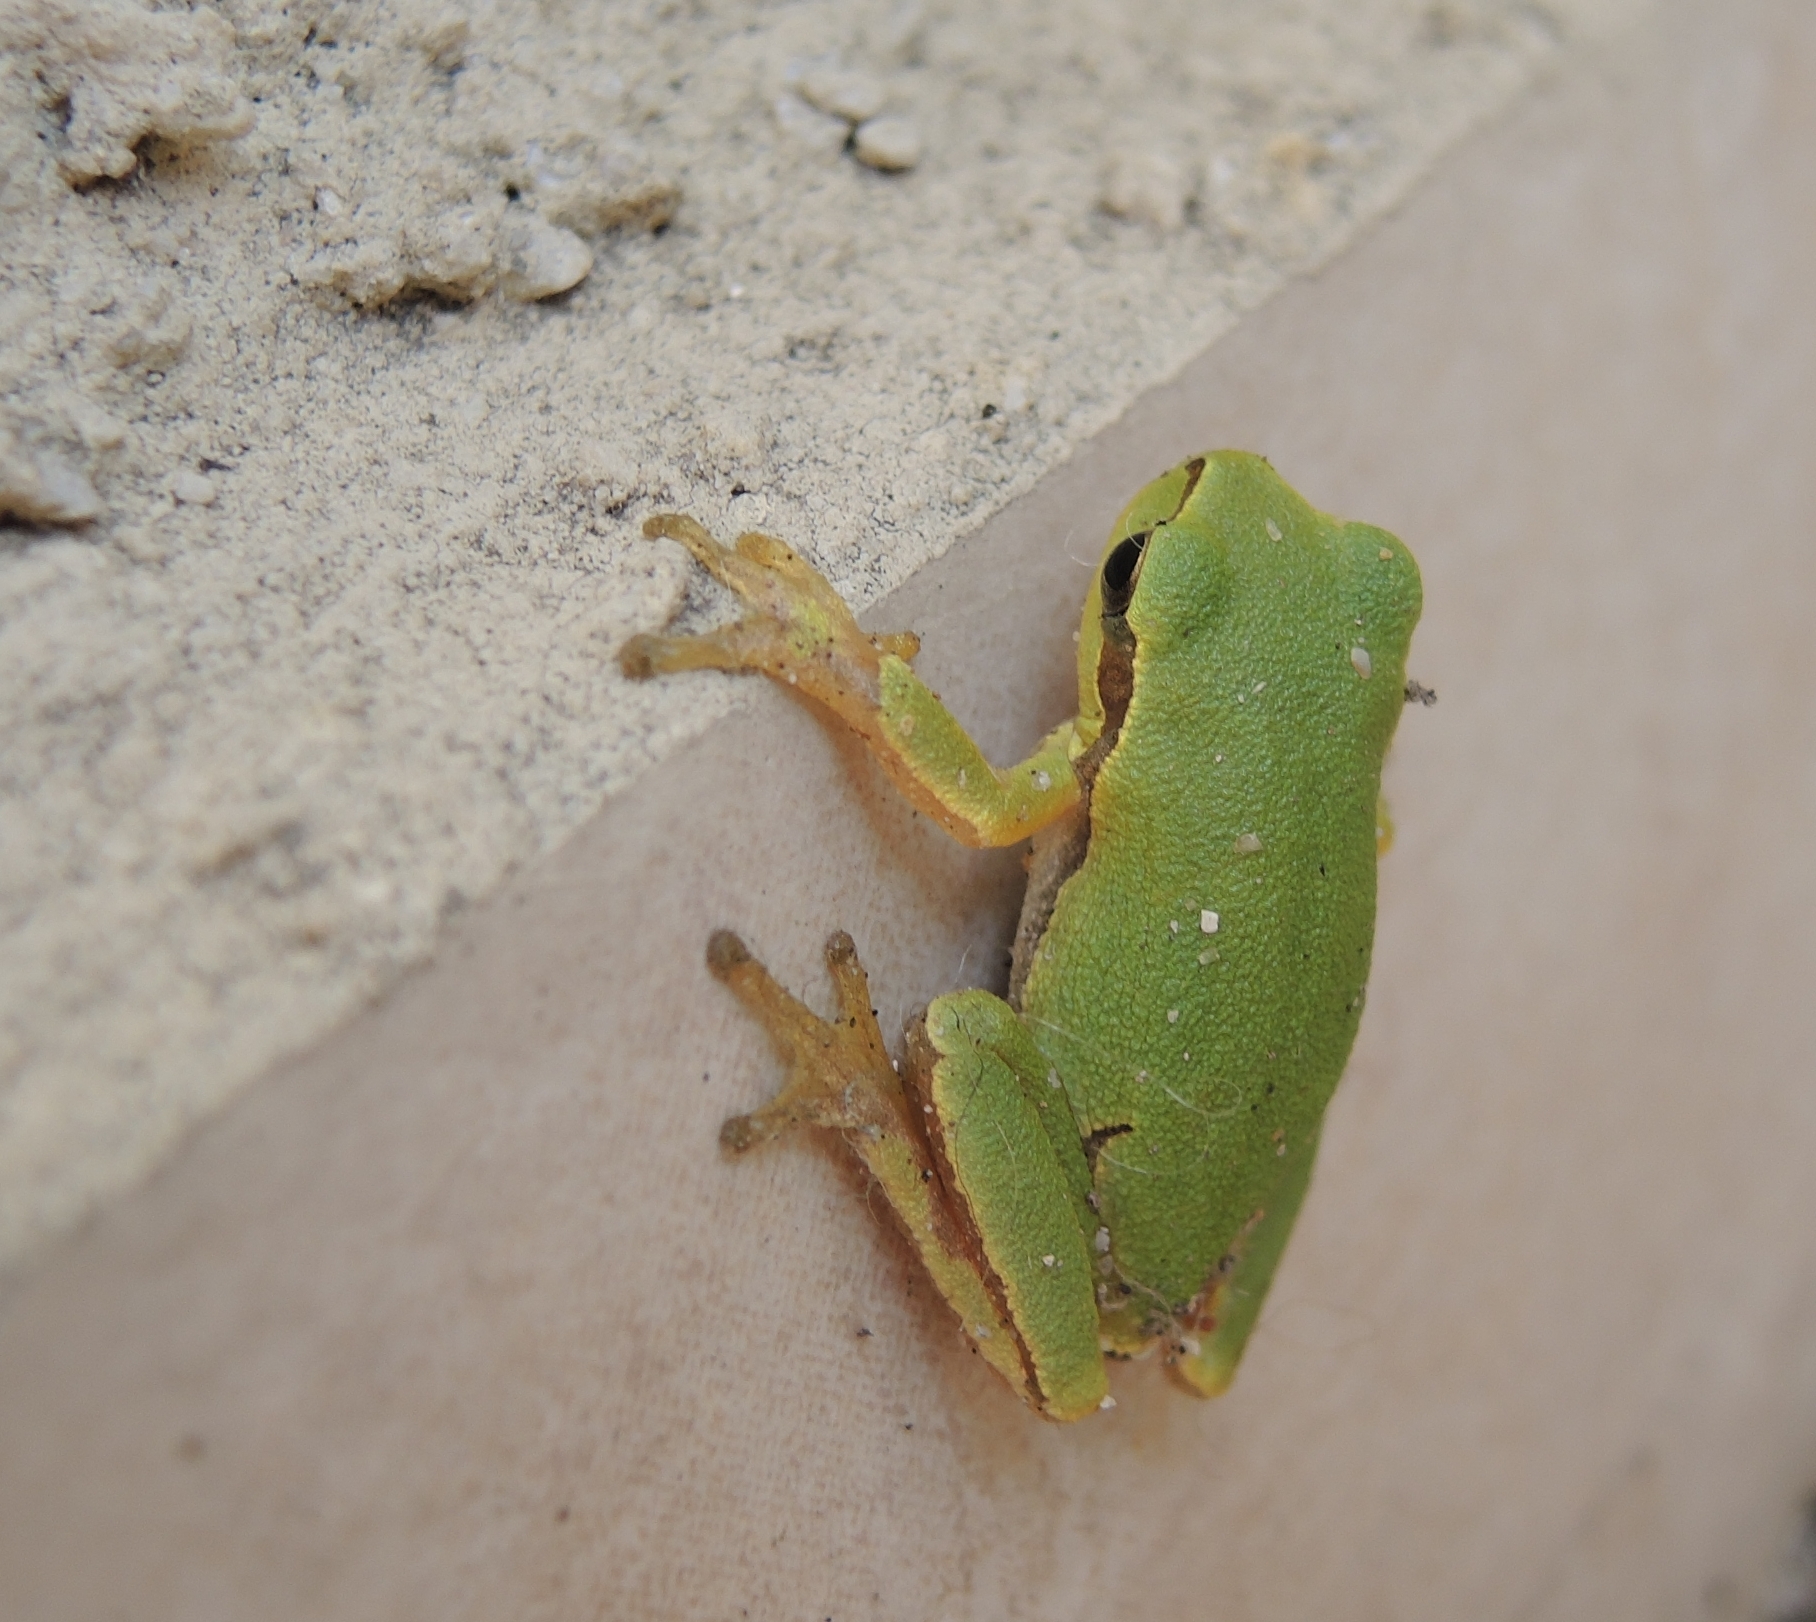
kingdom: Animalia
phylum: Chordata
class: Amphibia
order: Anura
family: Hylidae
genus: Hyla
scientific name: Hyla orientalis
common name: Caucasian treefrog
